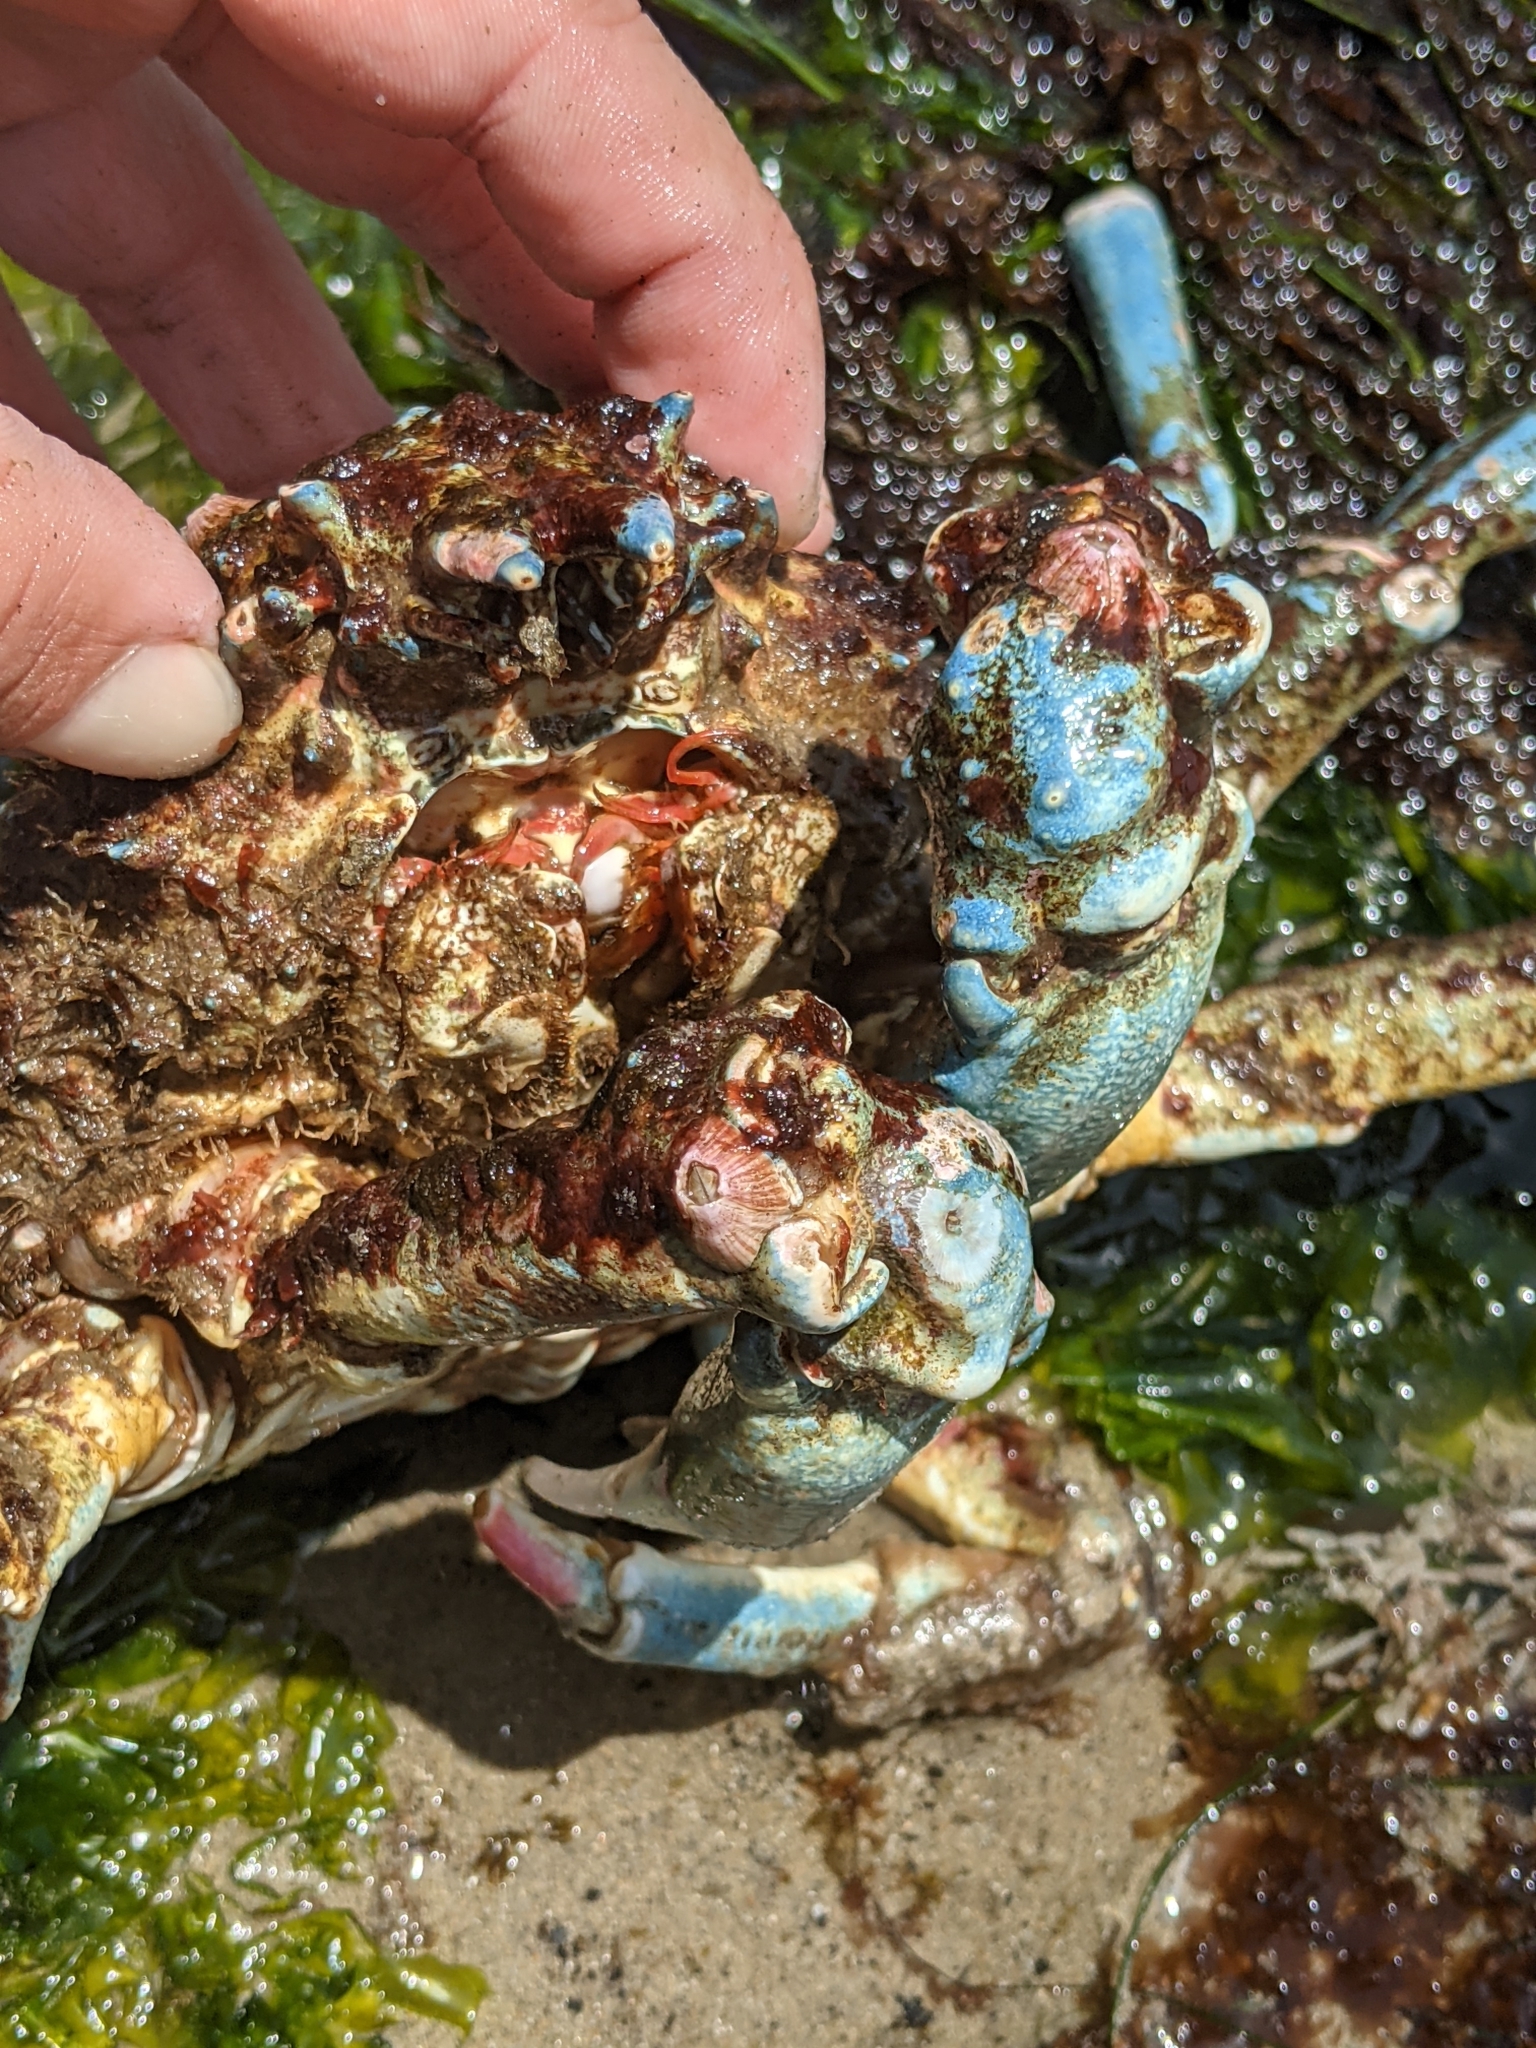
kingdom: Animalia
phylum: Arthropoda
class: Malacostraca
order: Decapoda
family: Epialtidae
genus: Loxorhynchus
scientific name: Loxorhynchus grandis
